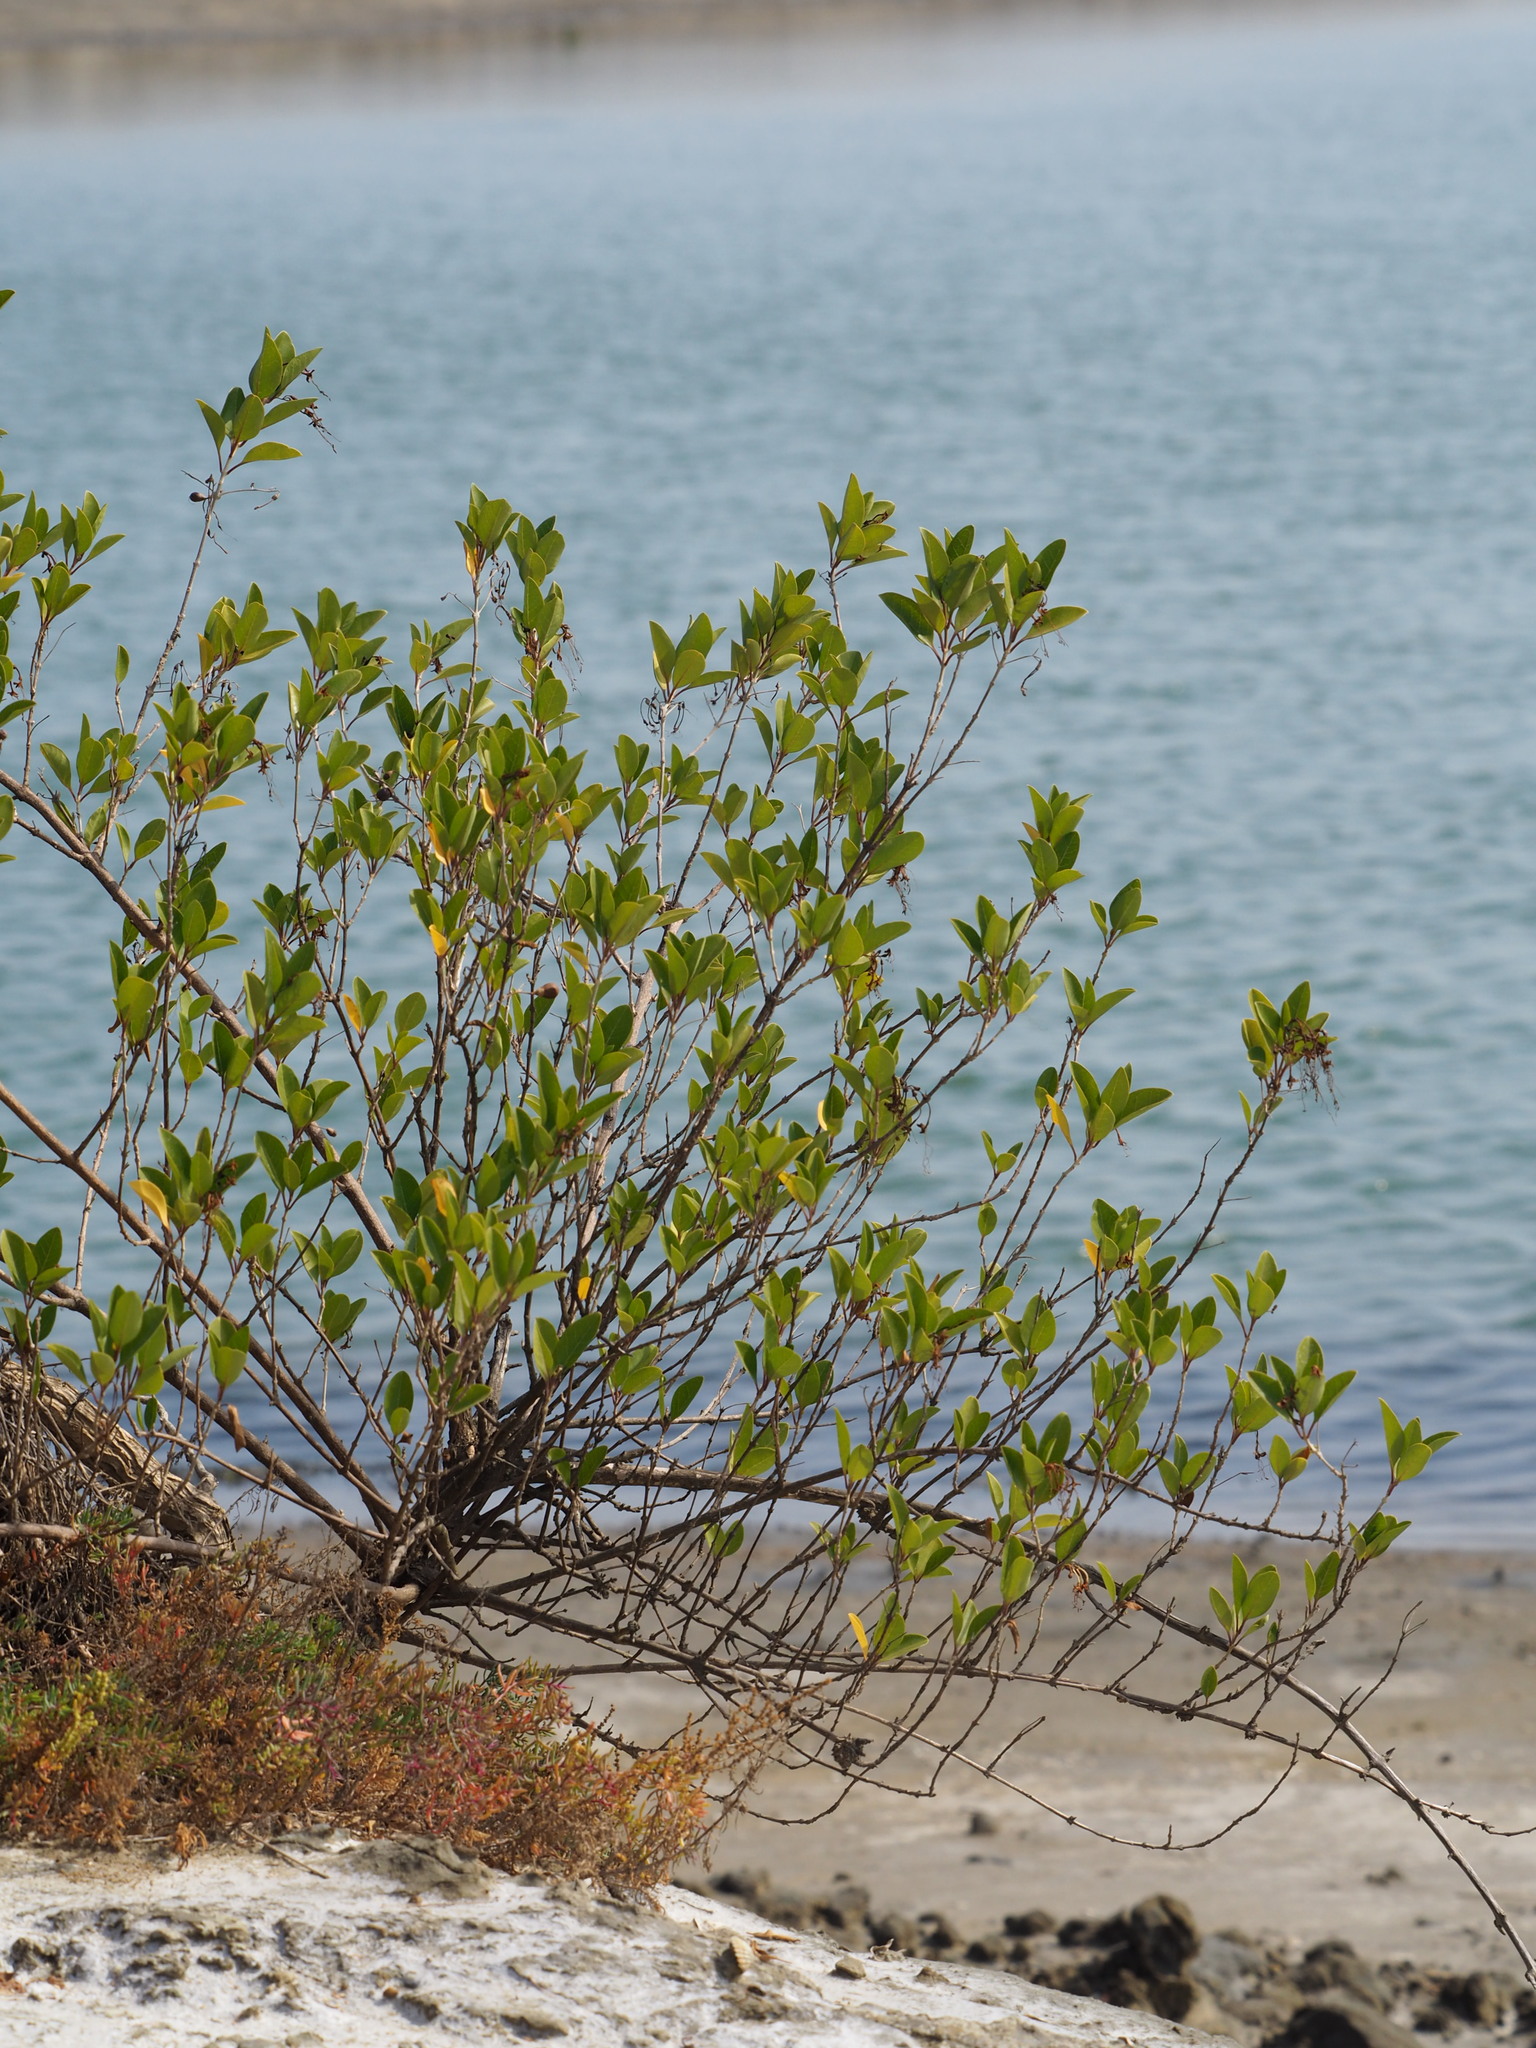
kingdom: Plantae
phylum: Tracheophyta
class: Magnoliopsida
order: Lamiales
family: Lamiaceae
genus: Volkameria
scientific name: Volkameria inermis
